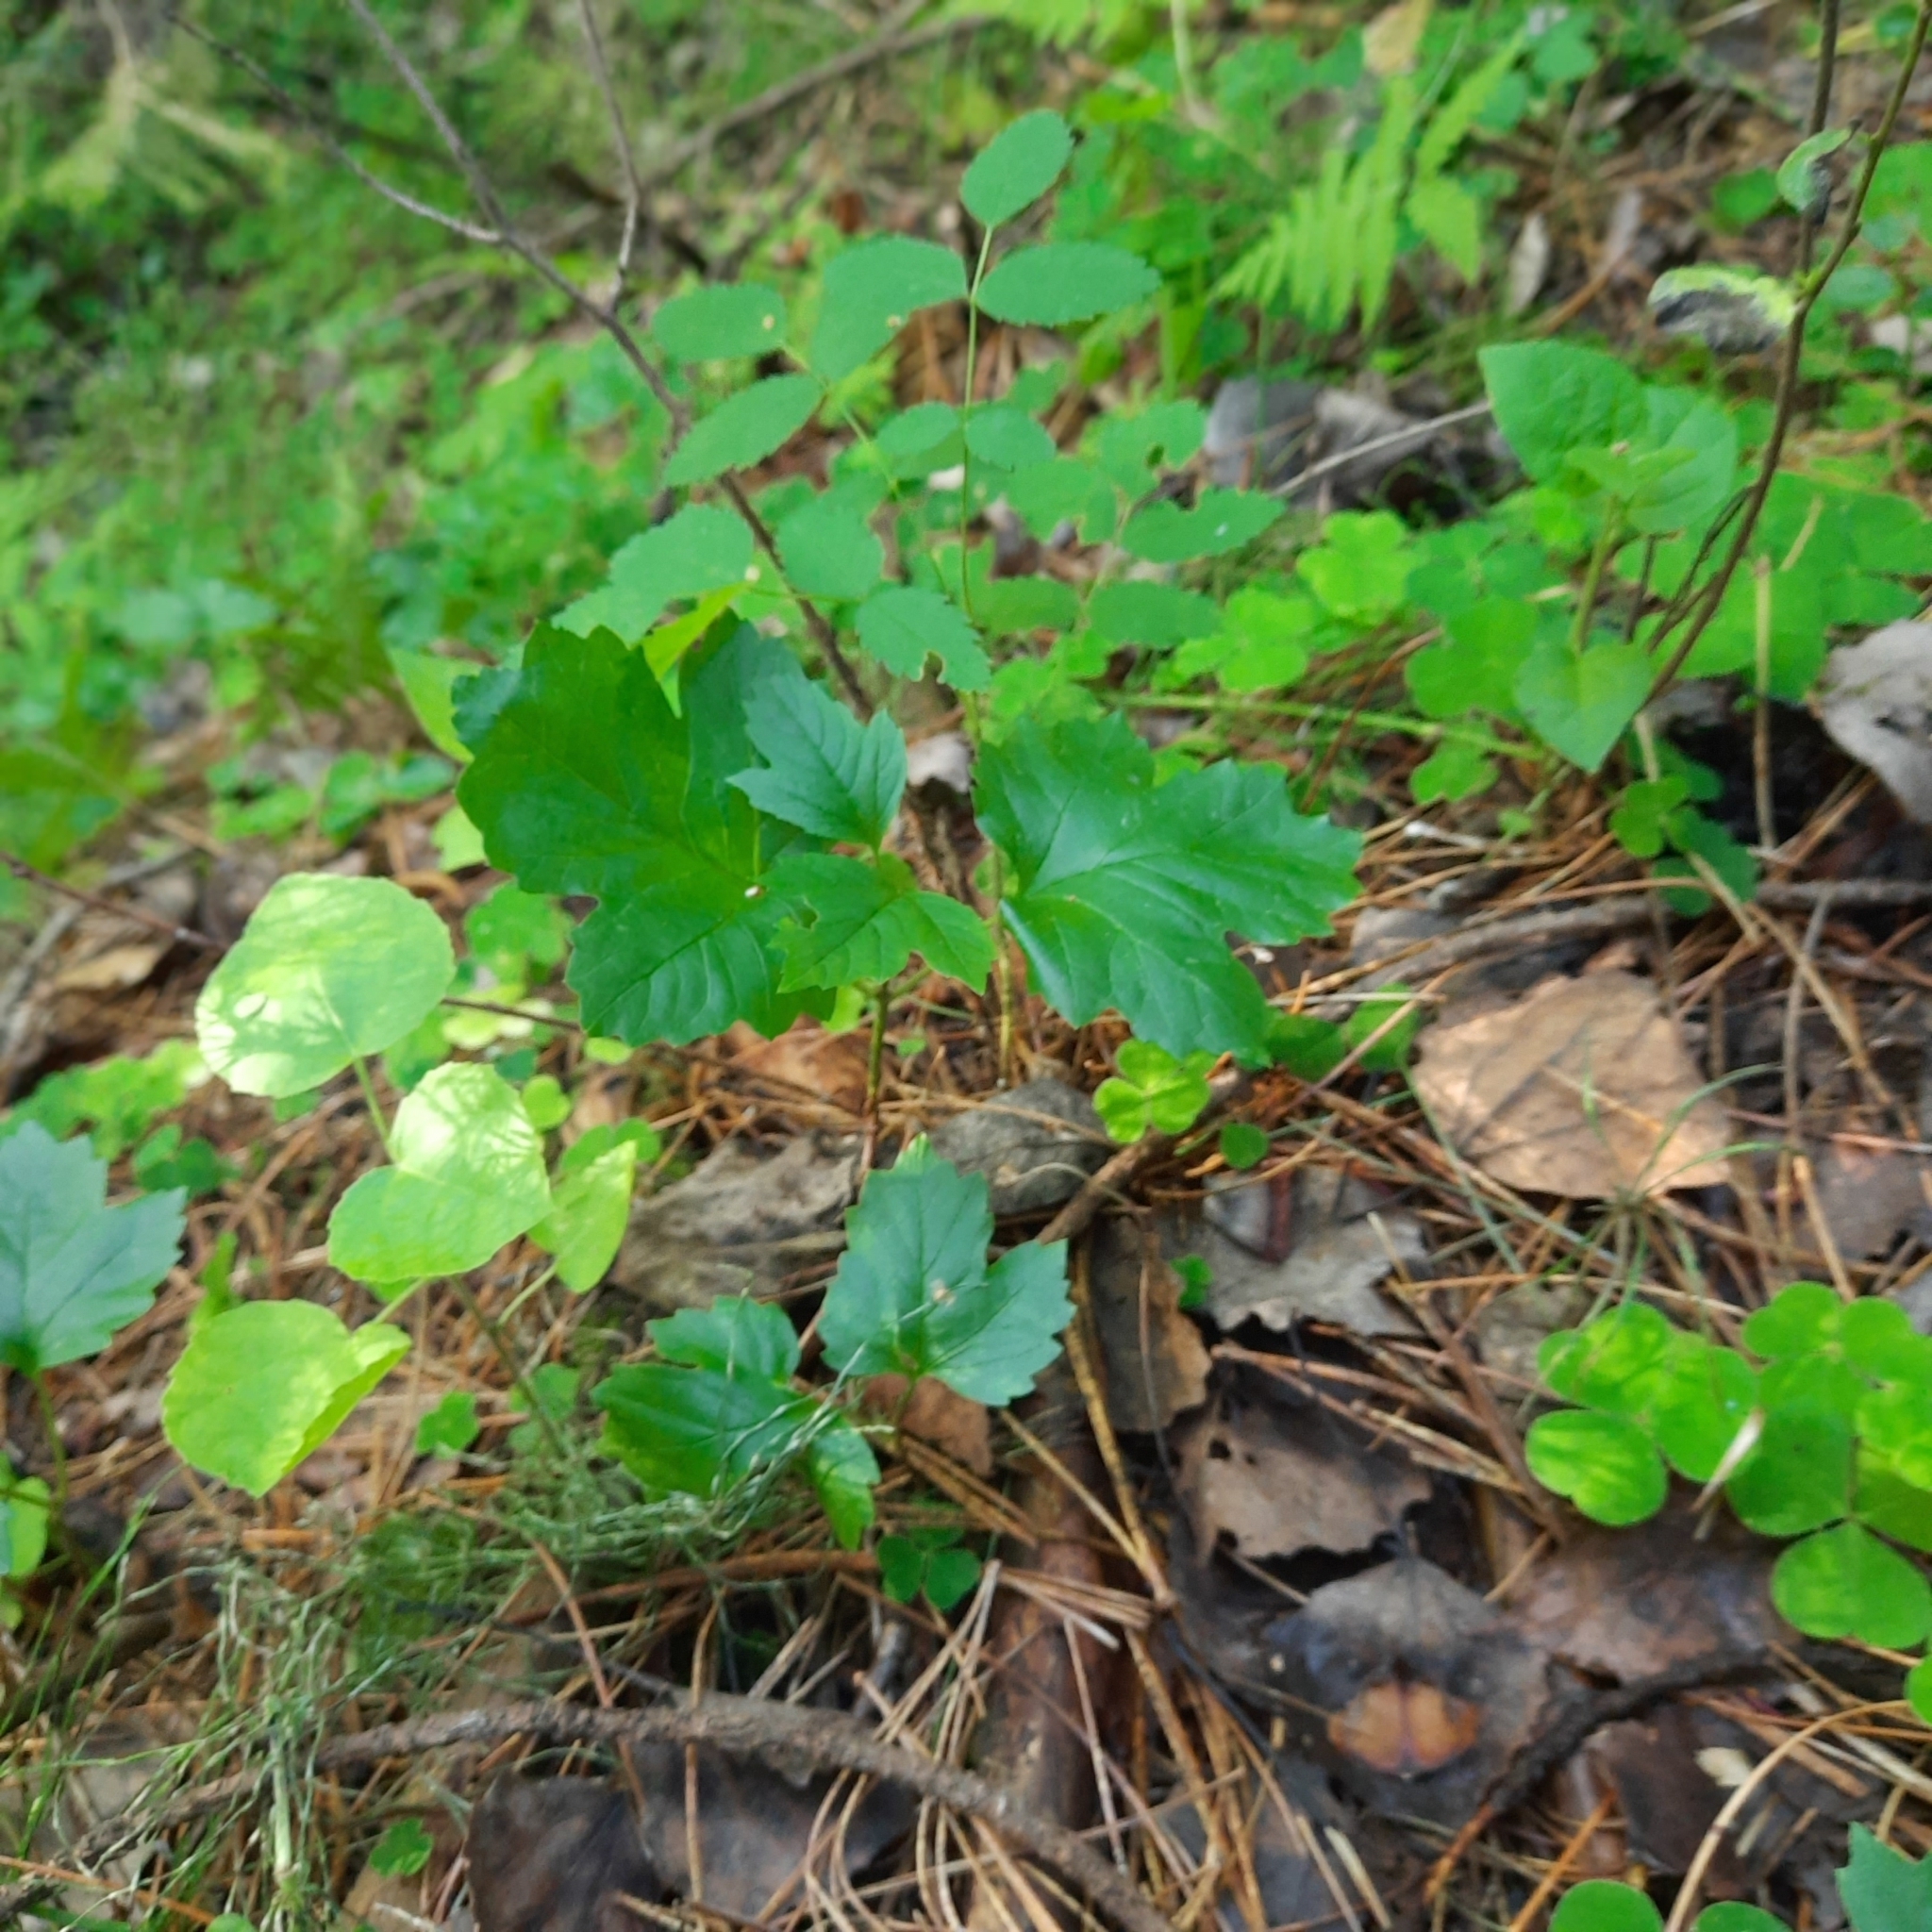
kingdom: Plantae
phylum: Tracheophyta
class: Magnoliopsida
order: Dipsacales
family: Viburnaceae
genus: Viburnum
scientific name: Viburnum opulus
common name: Guelder-rose
